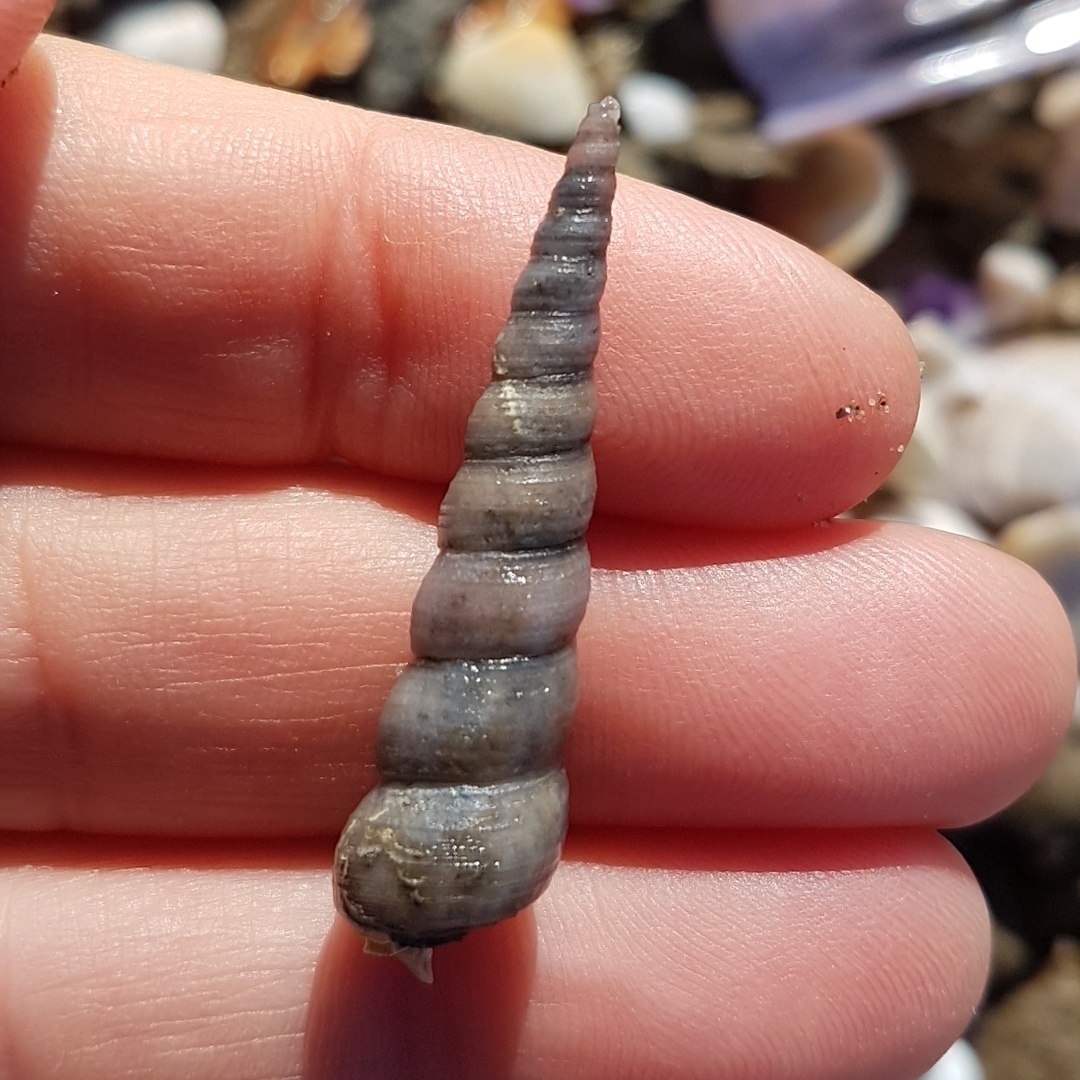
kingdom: Animalia
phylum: Mollusca
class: Gastropoda
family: Turritellidae
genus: Turritellinella
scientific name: Turritellinella tricarinata
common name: Auger shell
